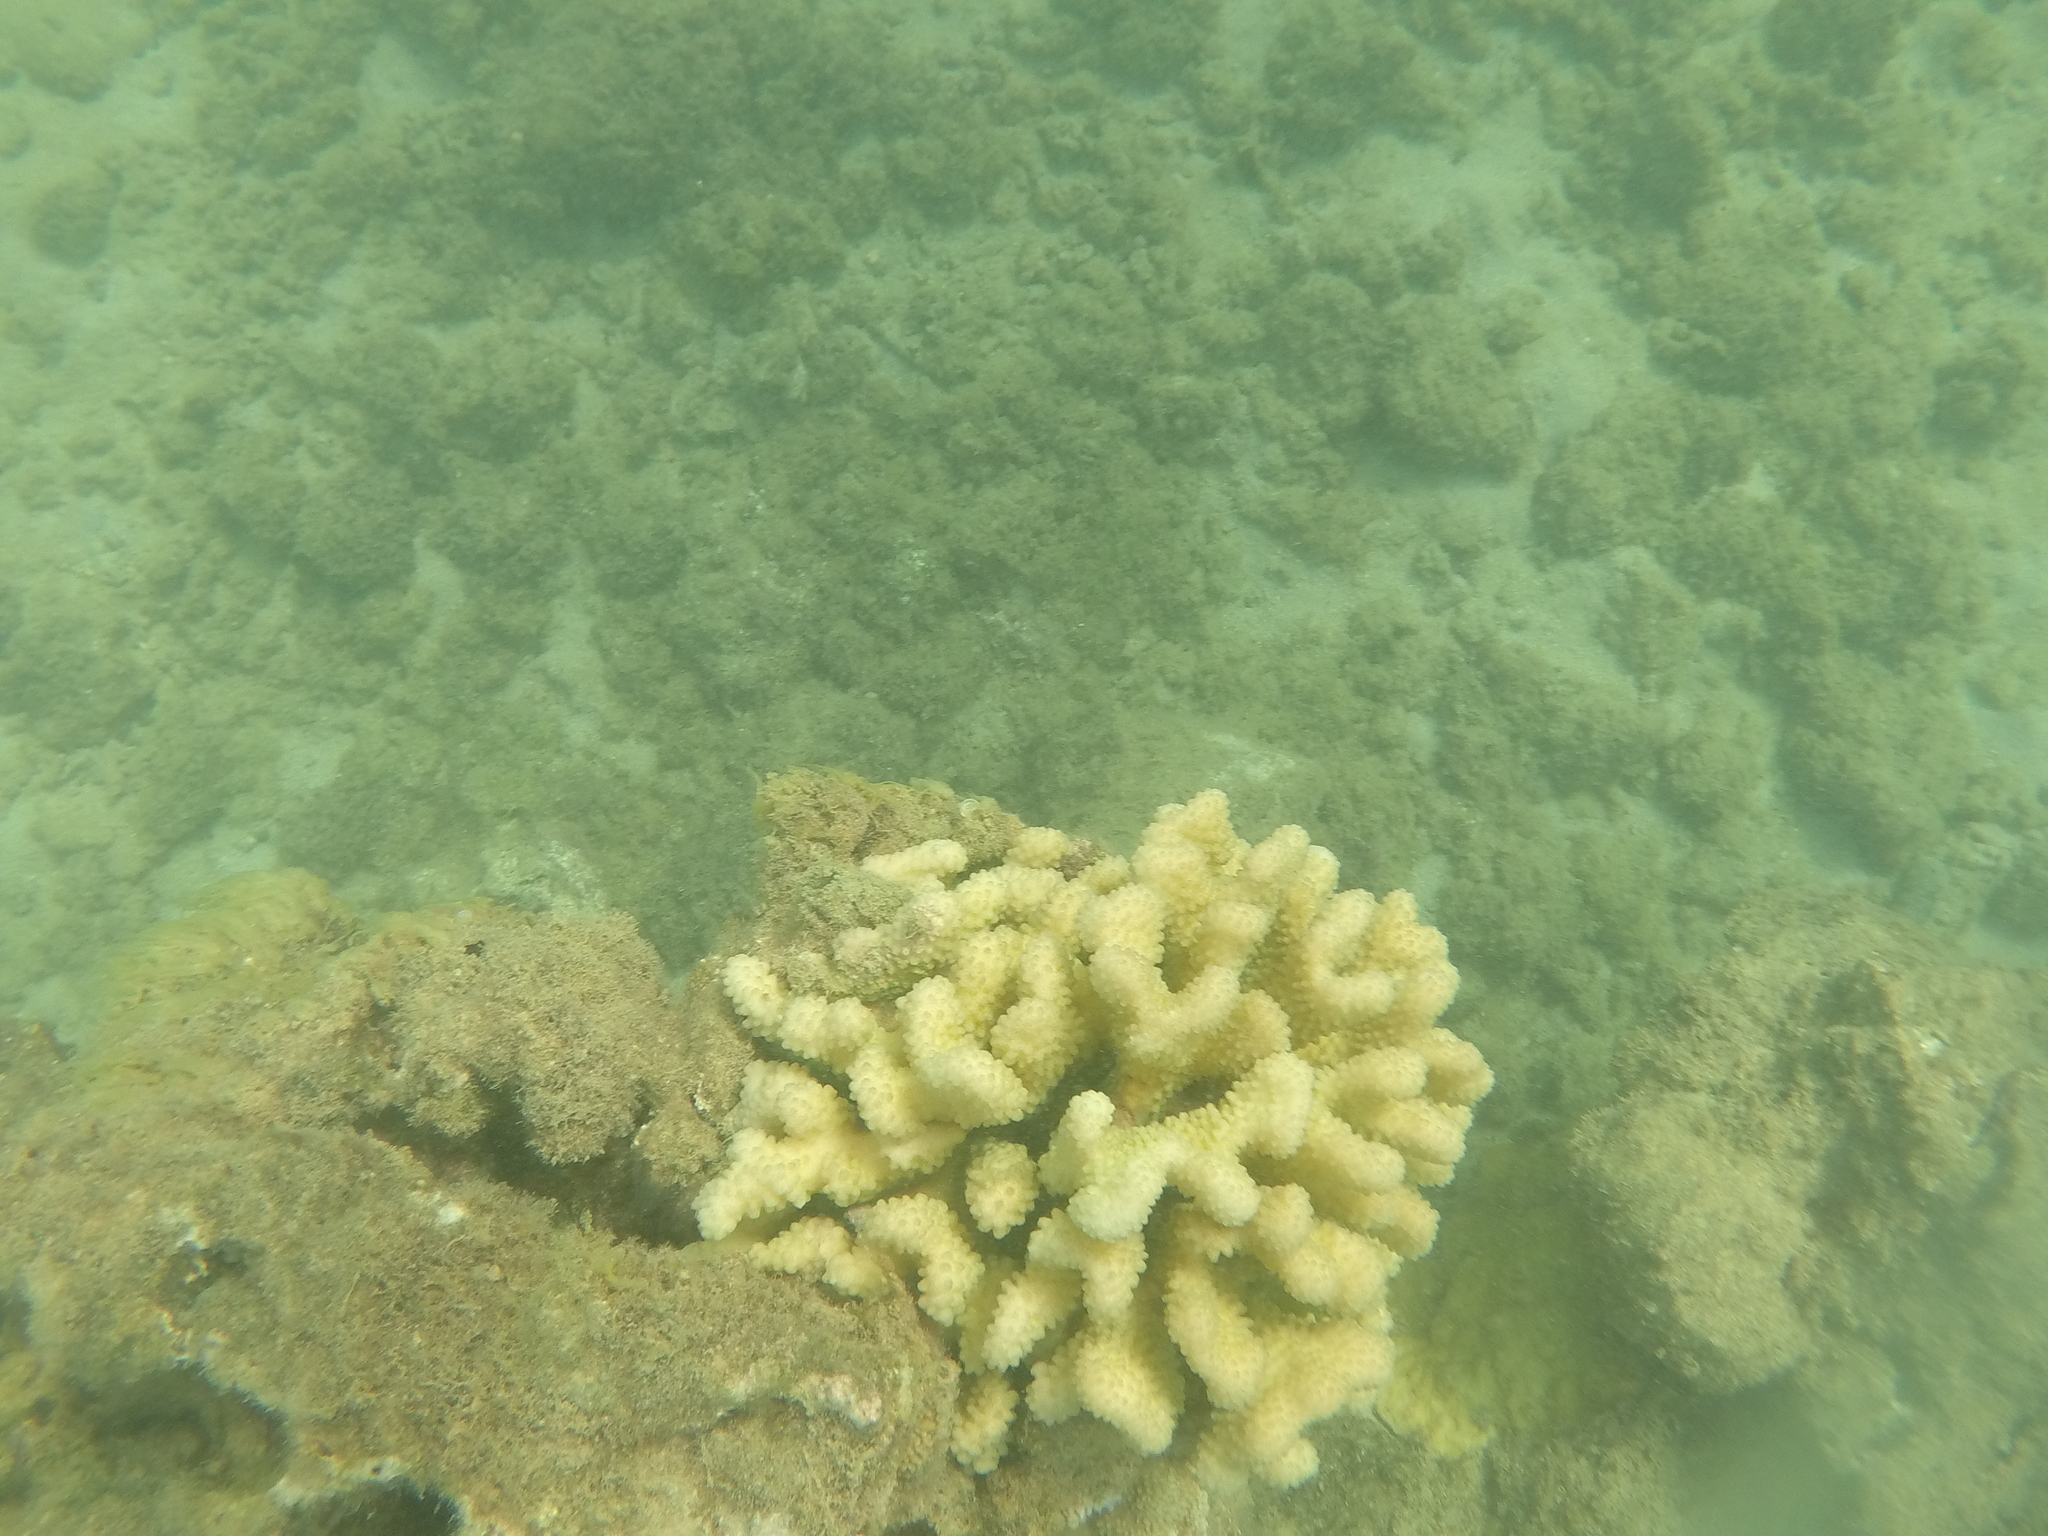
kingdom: Animalia
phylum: Cnidaria
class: Anthozoa
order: Scleractinia
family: Pocilloporidae
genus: Pocillopora
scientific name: Pocillopora verrucosa
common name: Cauliflower coral
